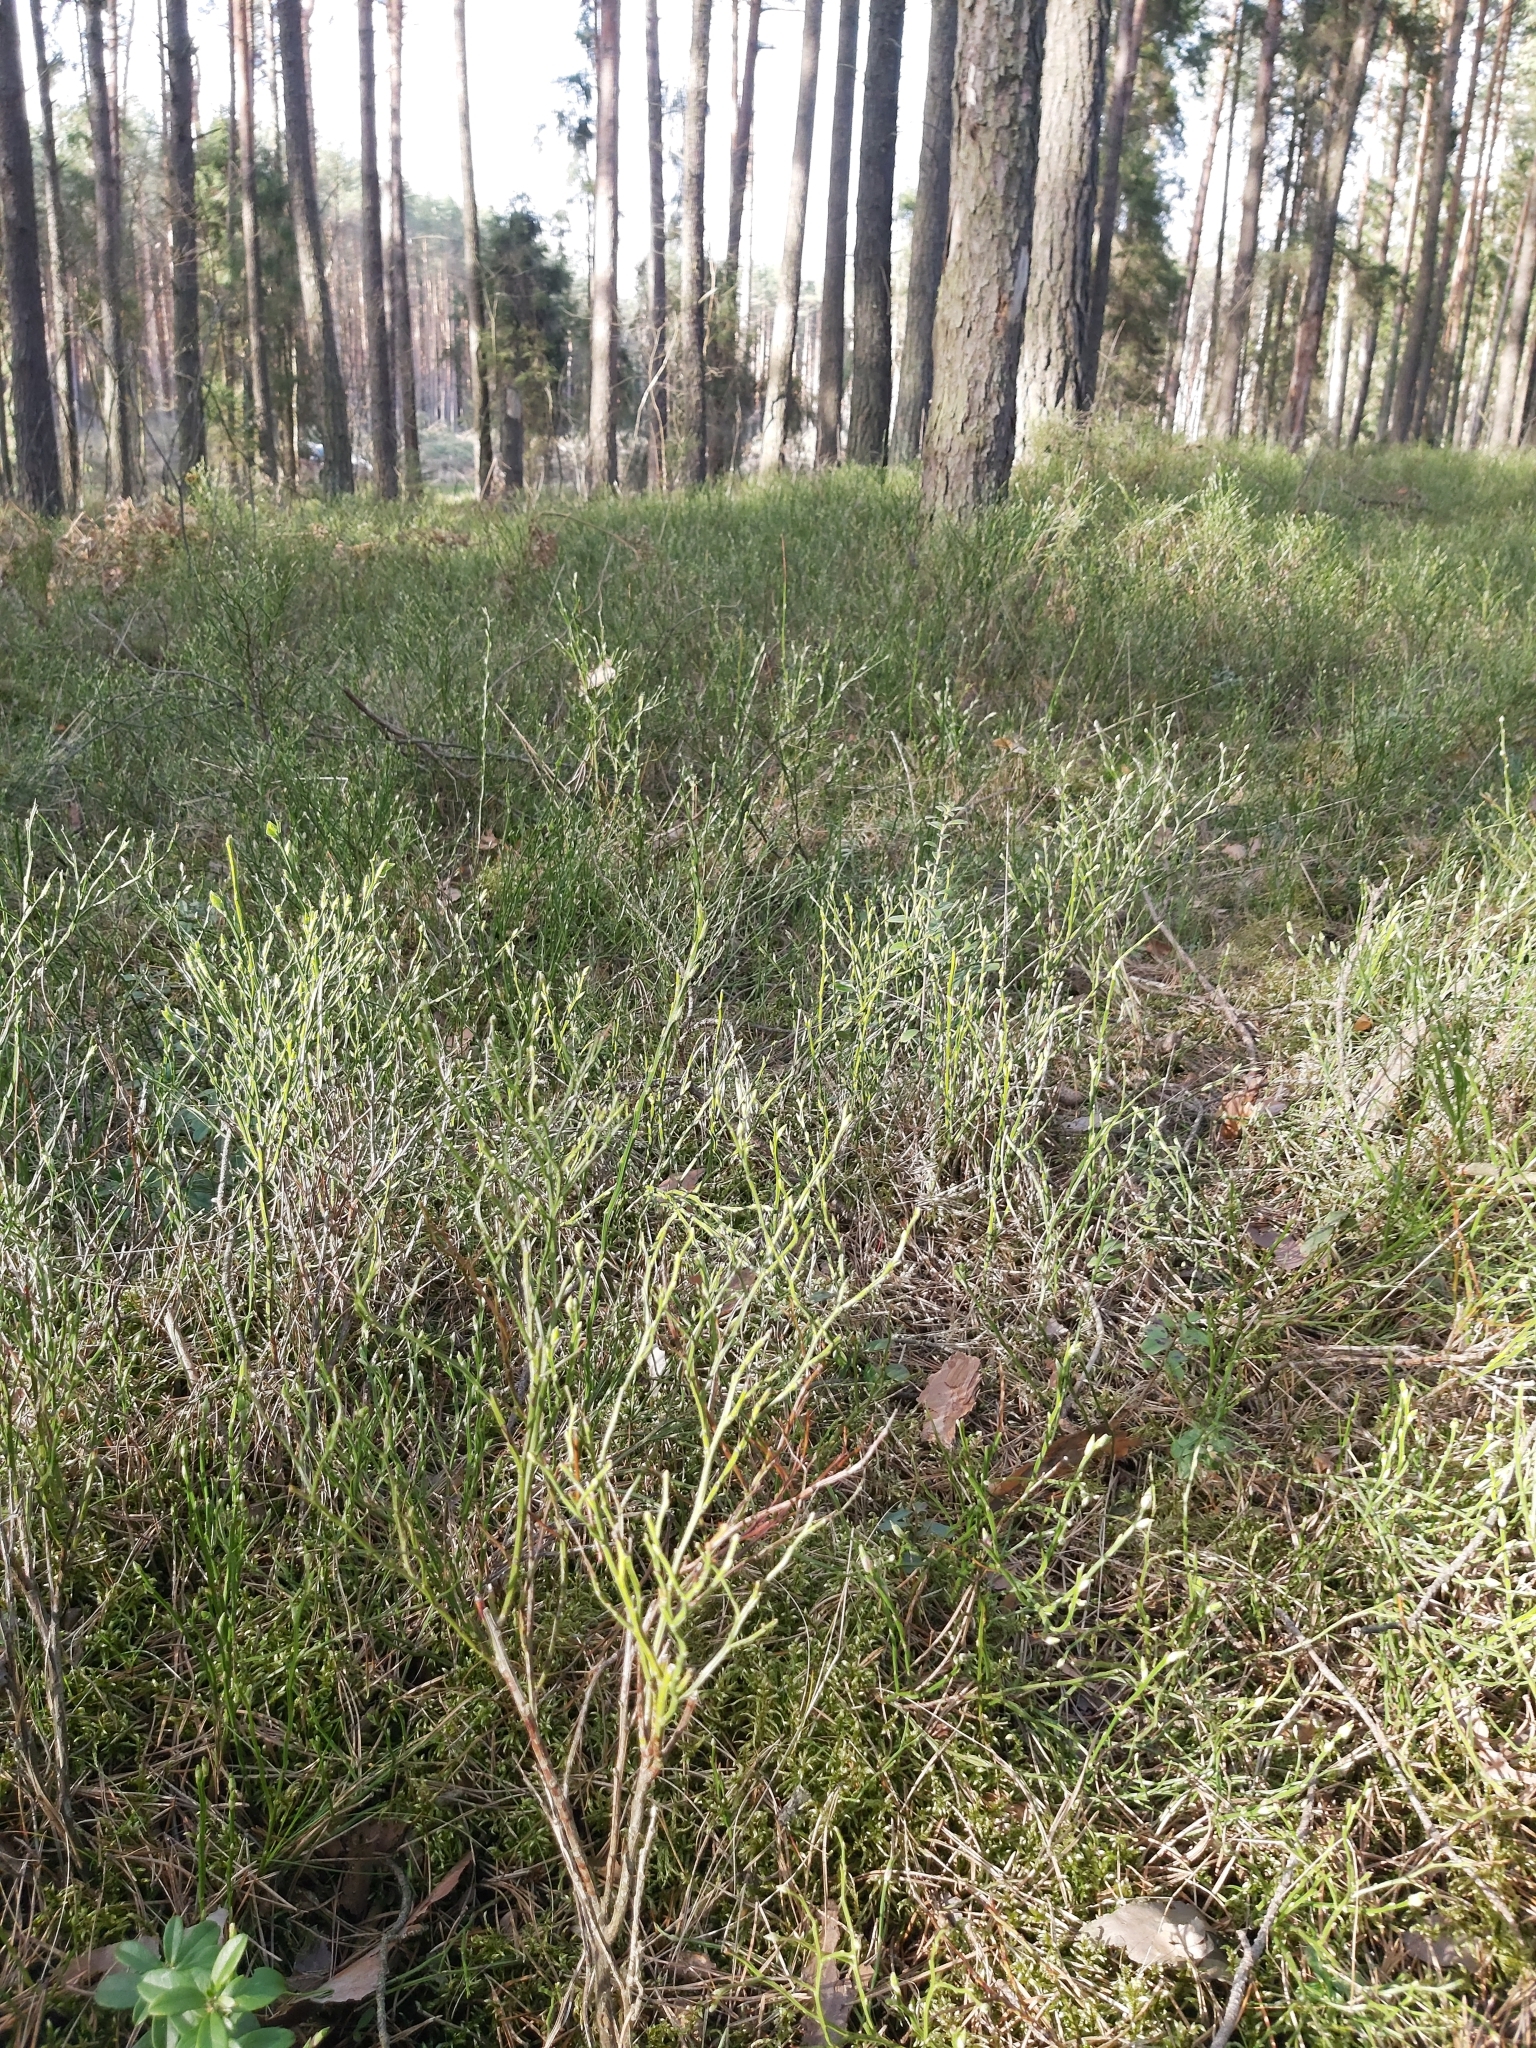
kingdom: Plantae
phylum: Tracheophyta
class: Magnoliopsida
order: Ericales
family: Ericaceae
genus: Vaccinium
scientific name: Vaccinium myrtillus
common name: Bilberry
